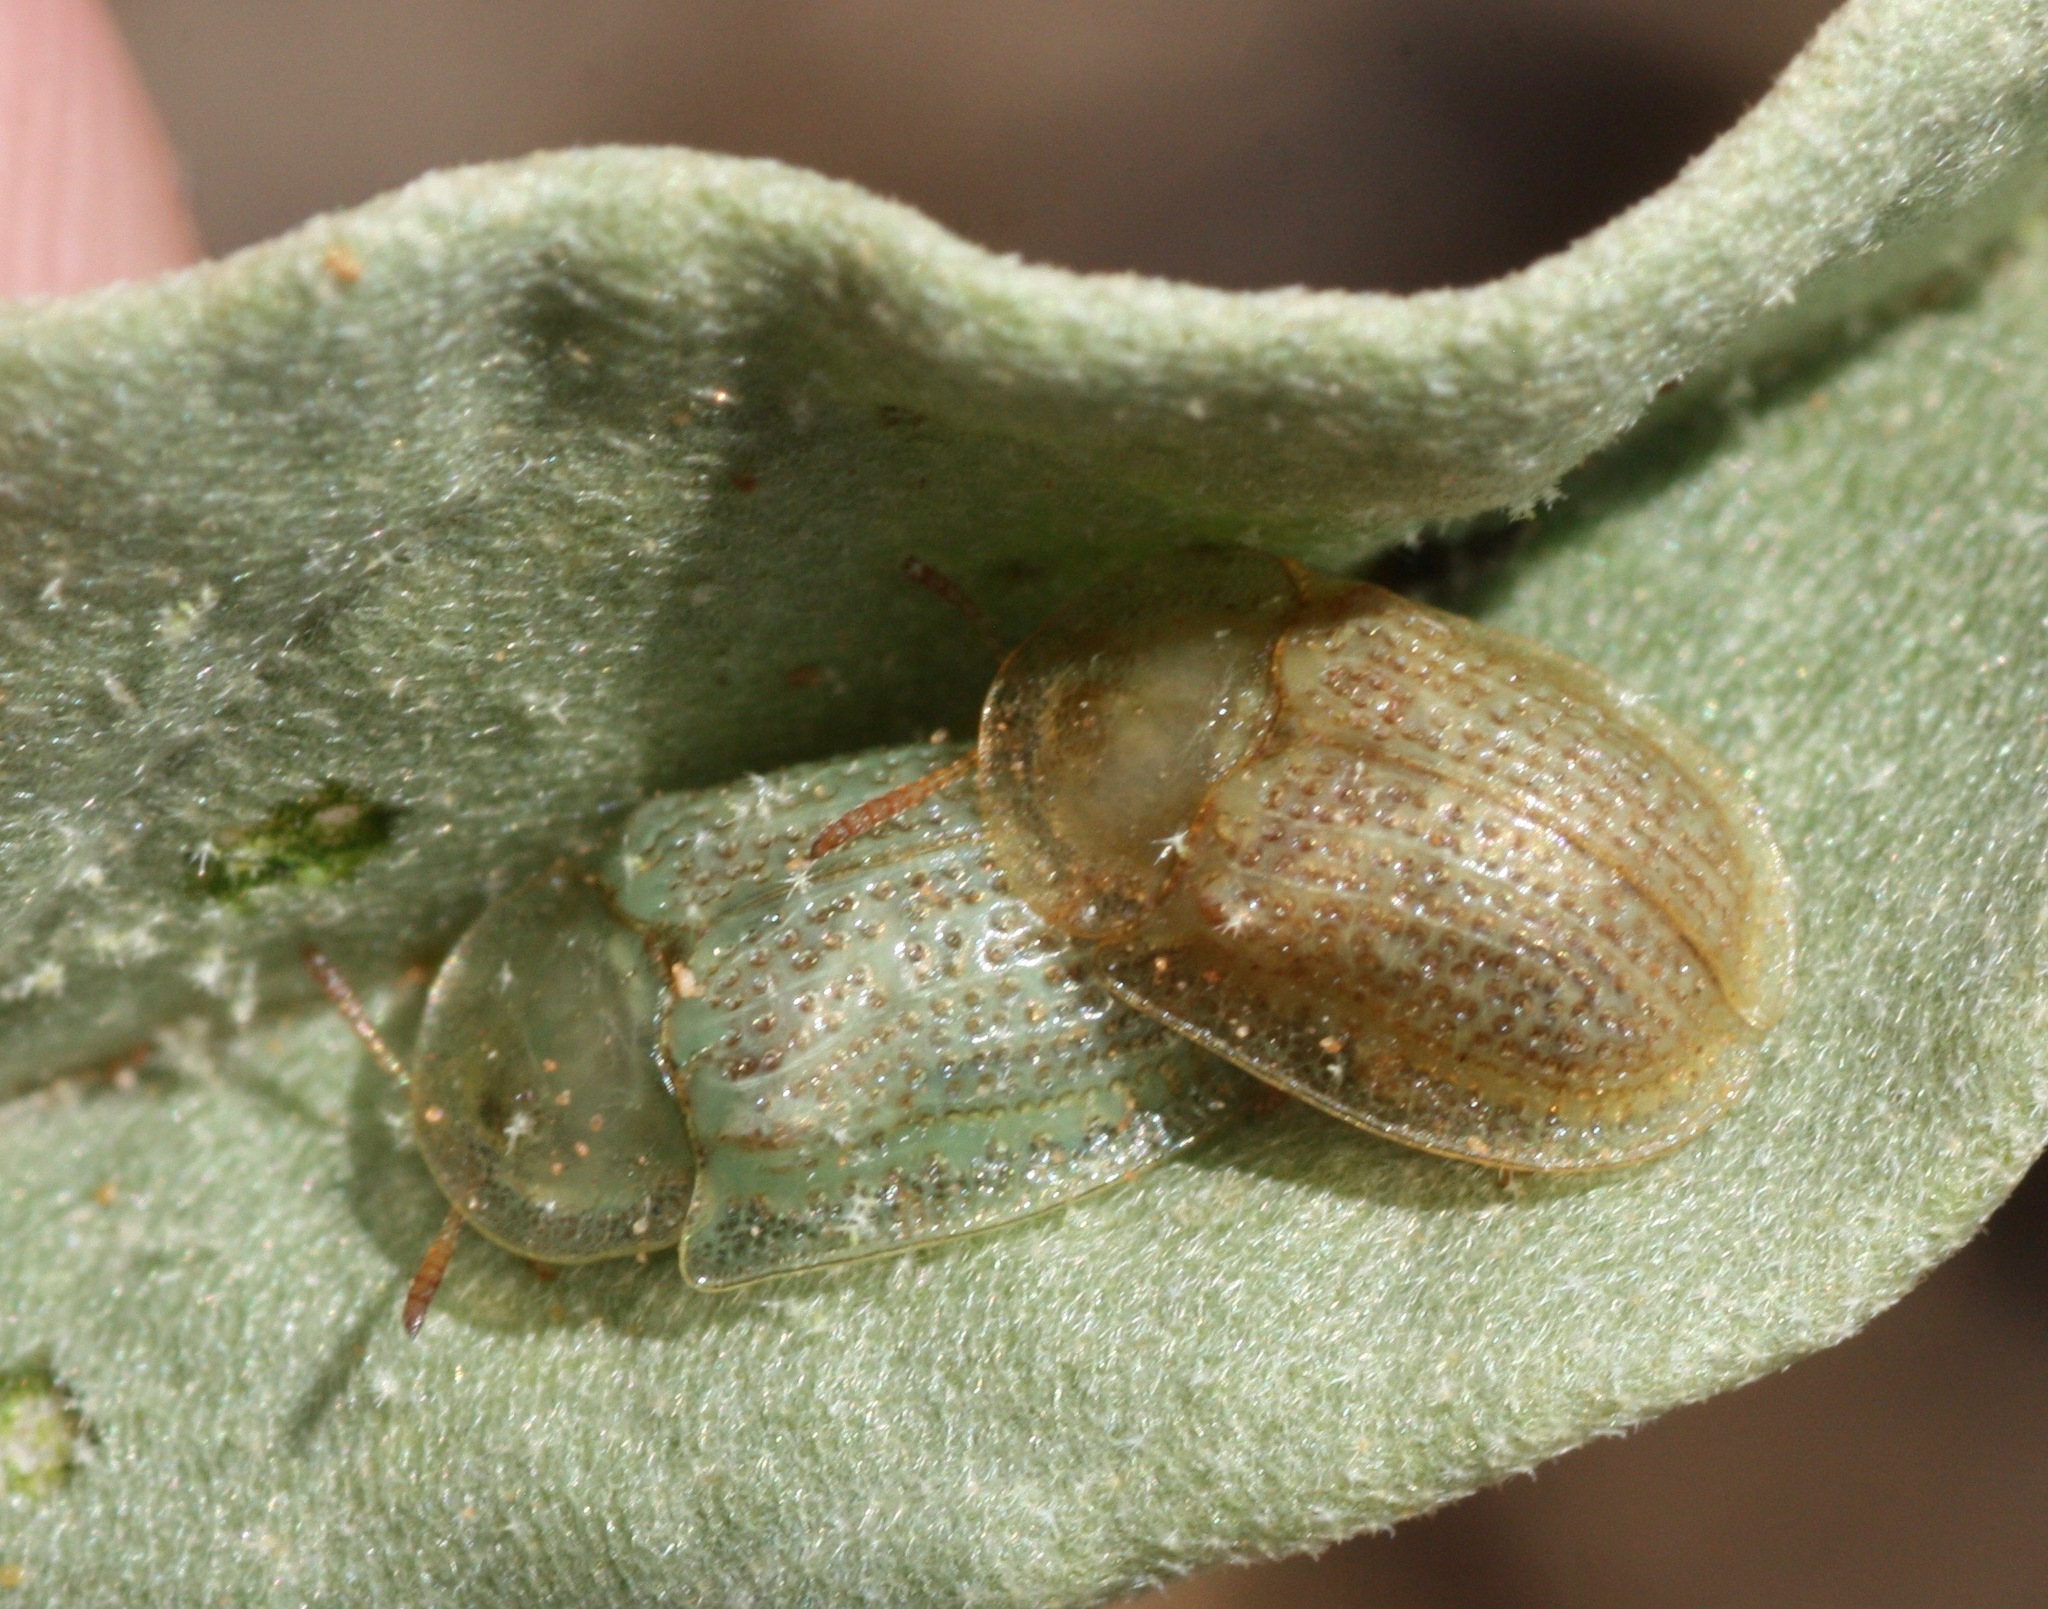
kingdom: Animalia
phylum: Arthropoda
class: Insecta
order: Coleoptera
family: Chrysomelidae
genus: Gratiana
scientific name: Gratiana pallidula
